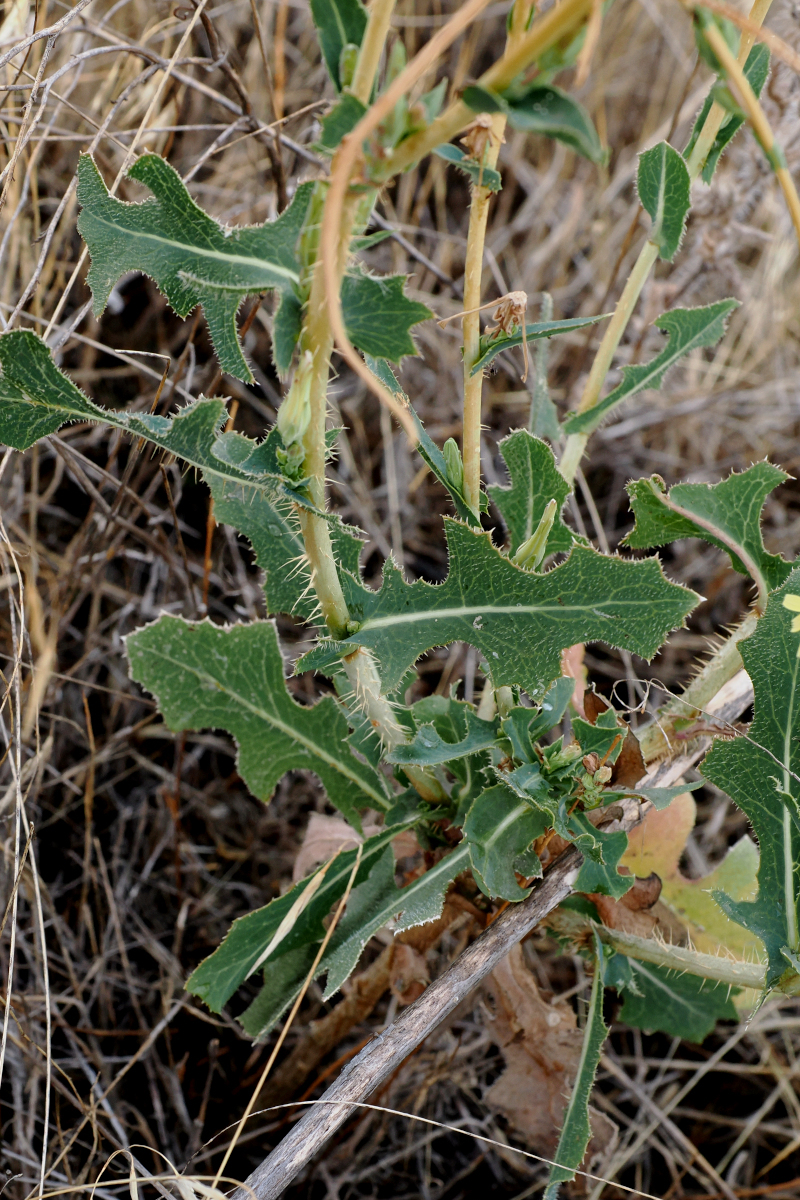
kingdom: Plantae
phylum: Tracheophyta
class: Magnoliopsida
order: Asterales
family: Asteraceae
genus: Lactuca
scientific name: Lactuca serriola
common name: Prickly lettuce
